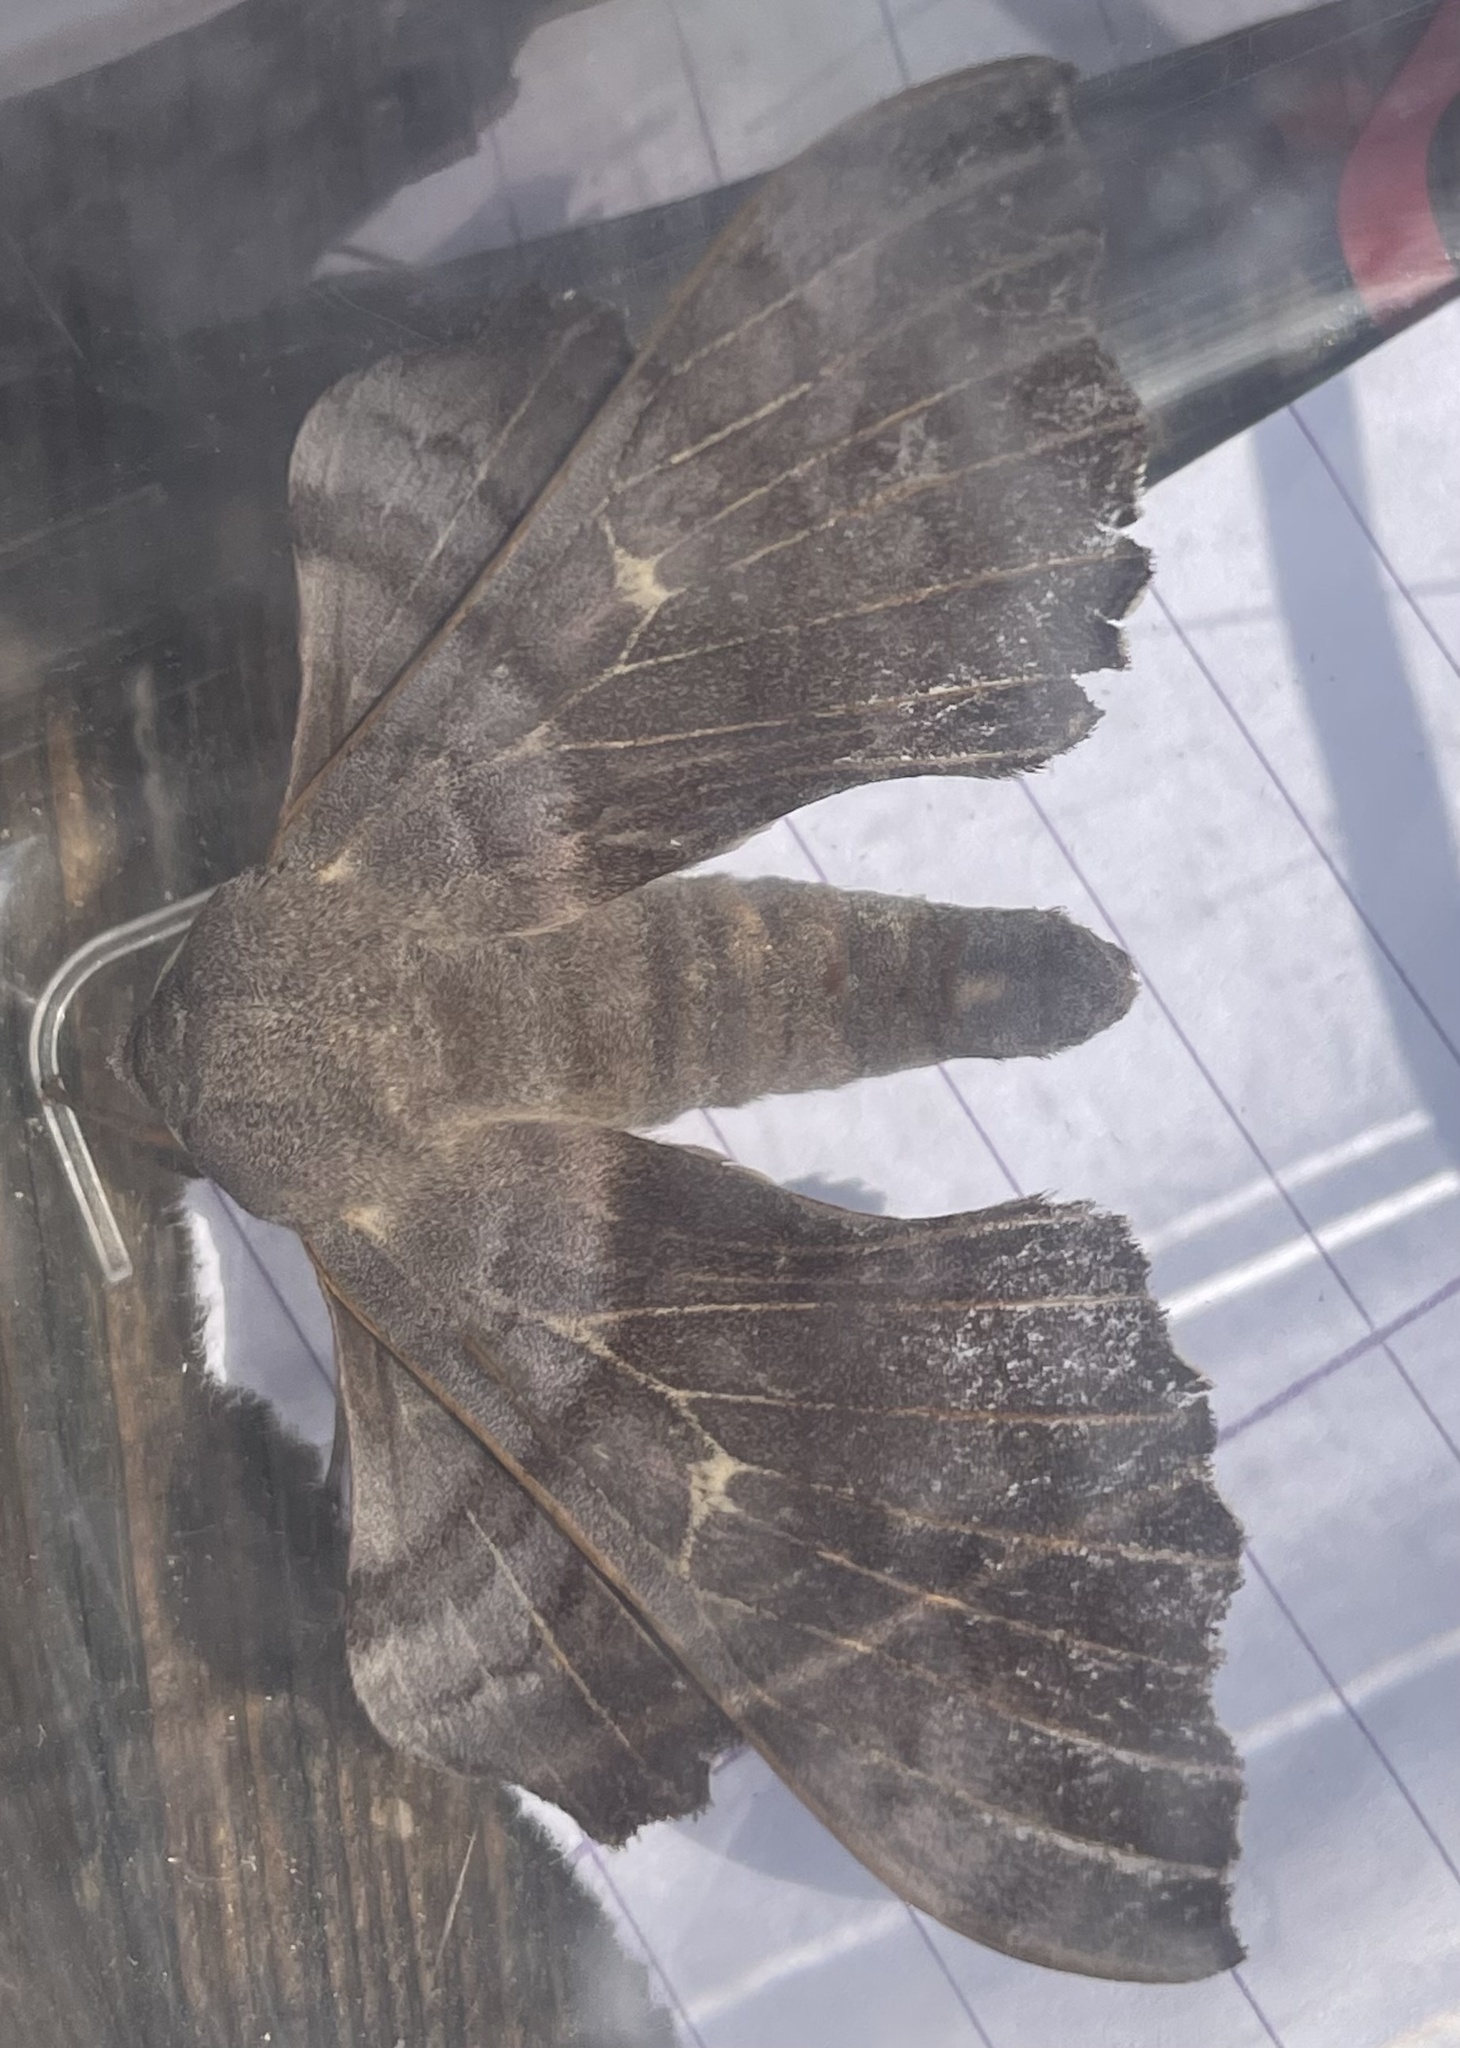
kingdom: Animalia
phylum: Arthropoda
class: Insecta
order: Lepidoptera
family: Sphingidae
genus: Laothoe
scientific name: Laothoe populi
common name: Poplar hawk-moth
